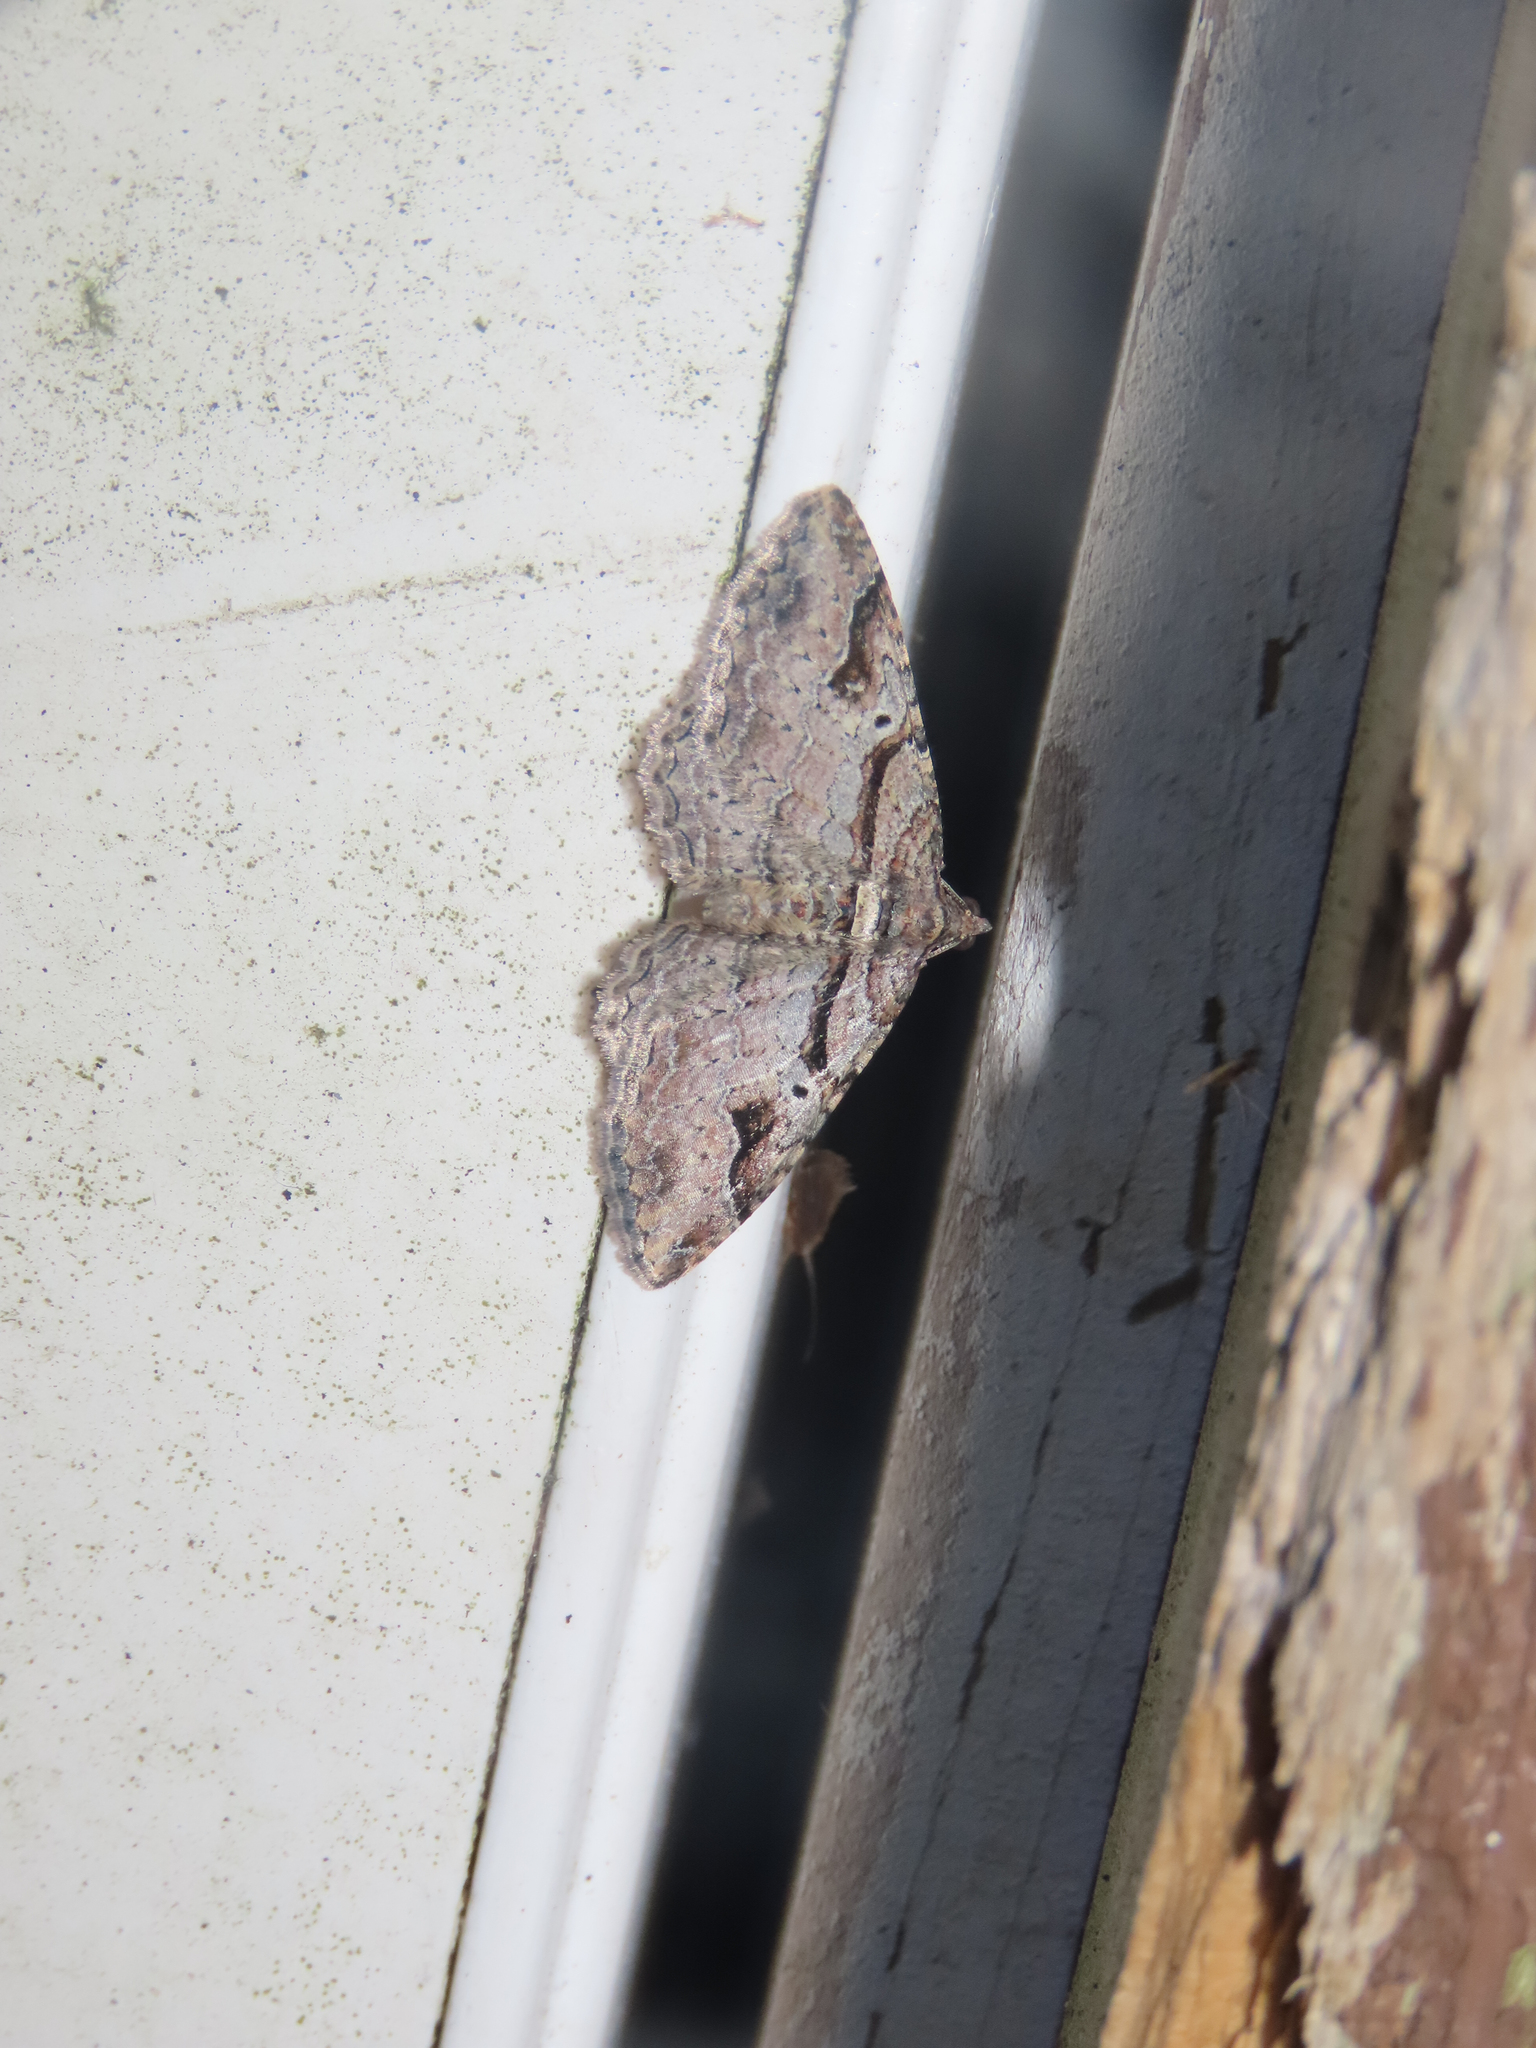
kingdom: Animalia
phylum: Arthropoda
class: Insecta
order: Lepidoptera
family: Geometridae
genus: Costaconvexa
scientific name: Costaconvexa centrostrigaria
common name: Bent-line carpet
